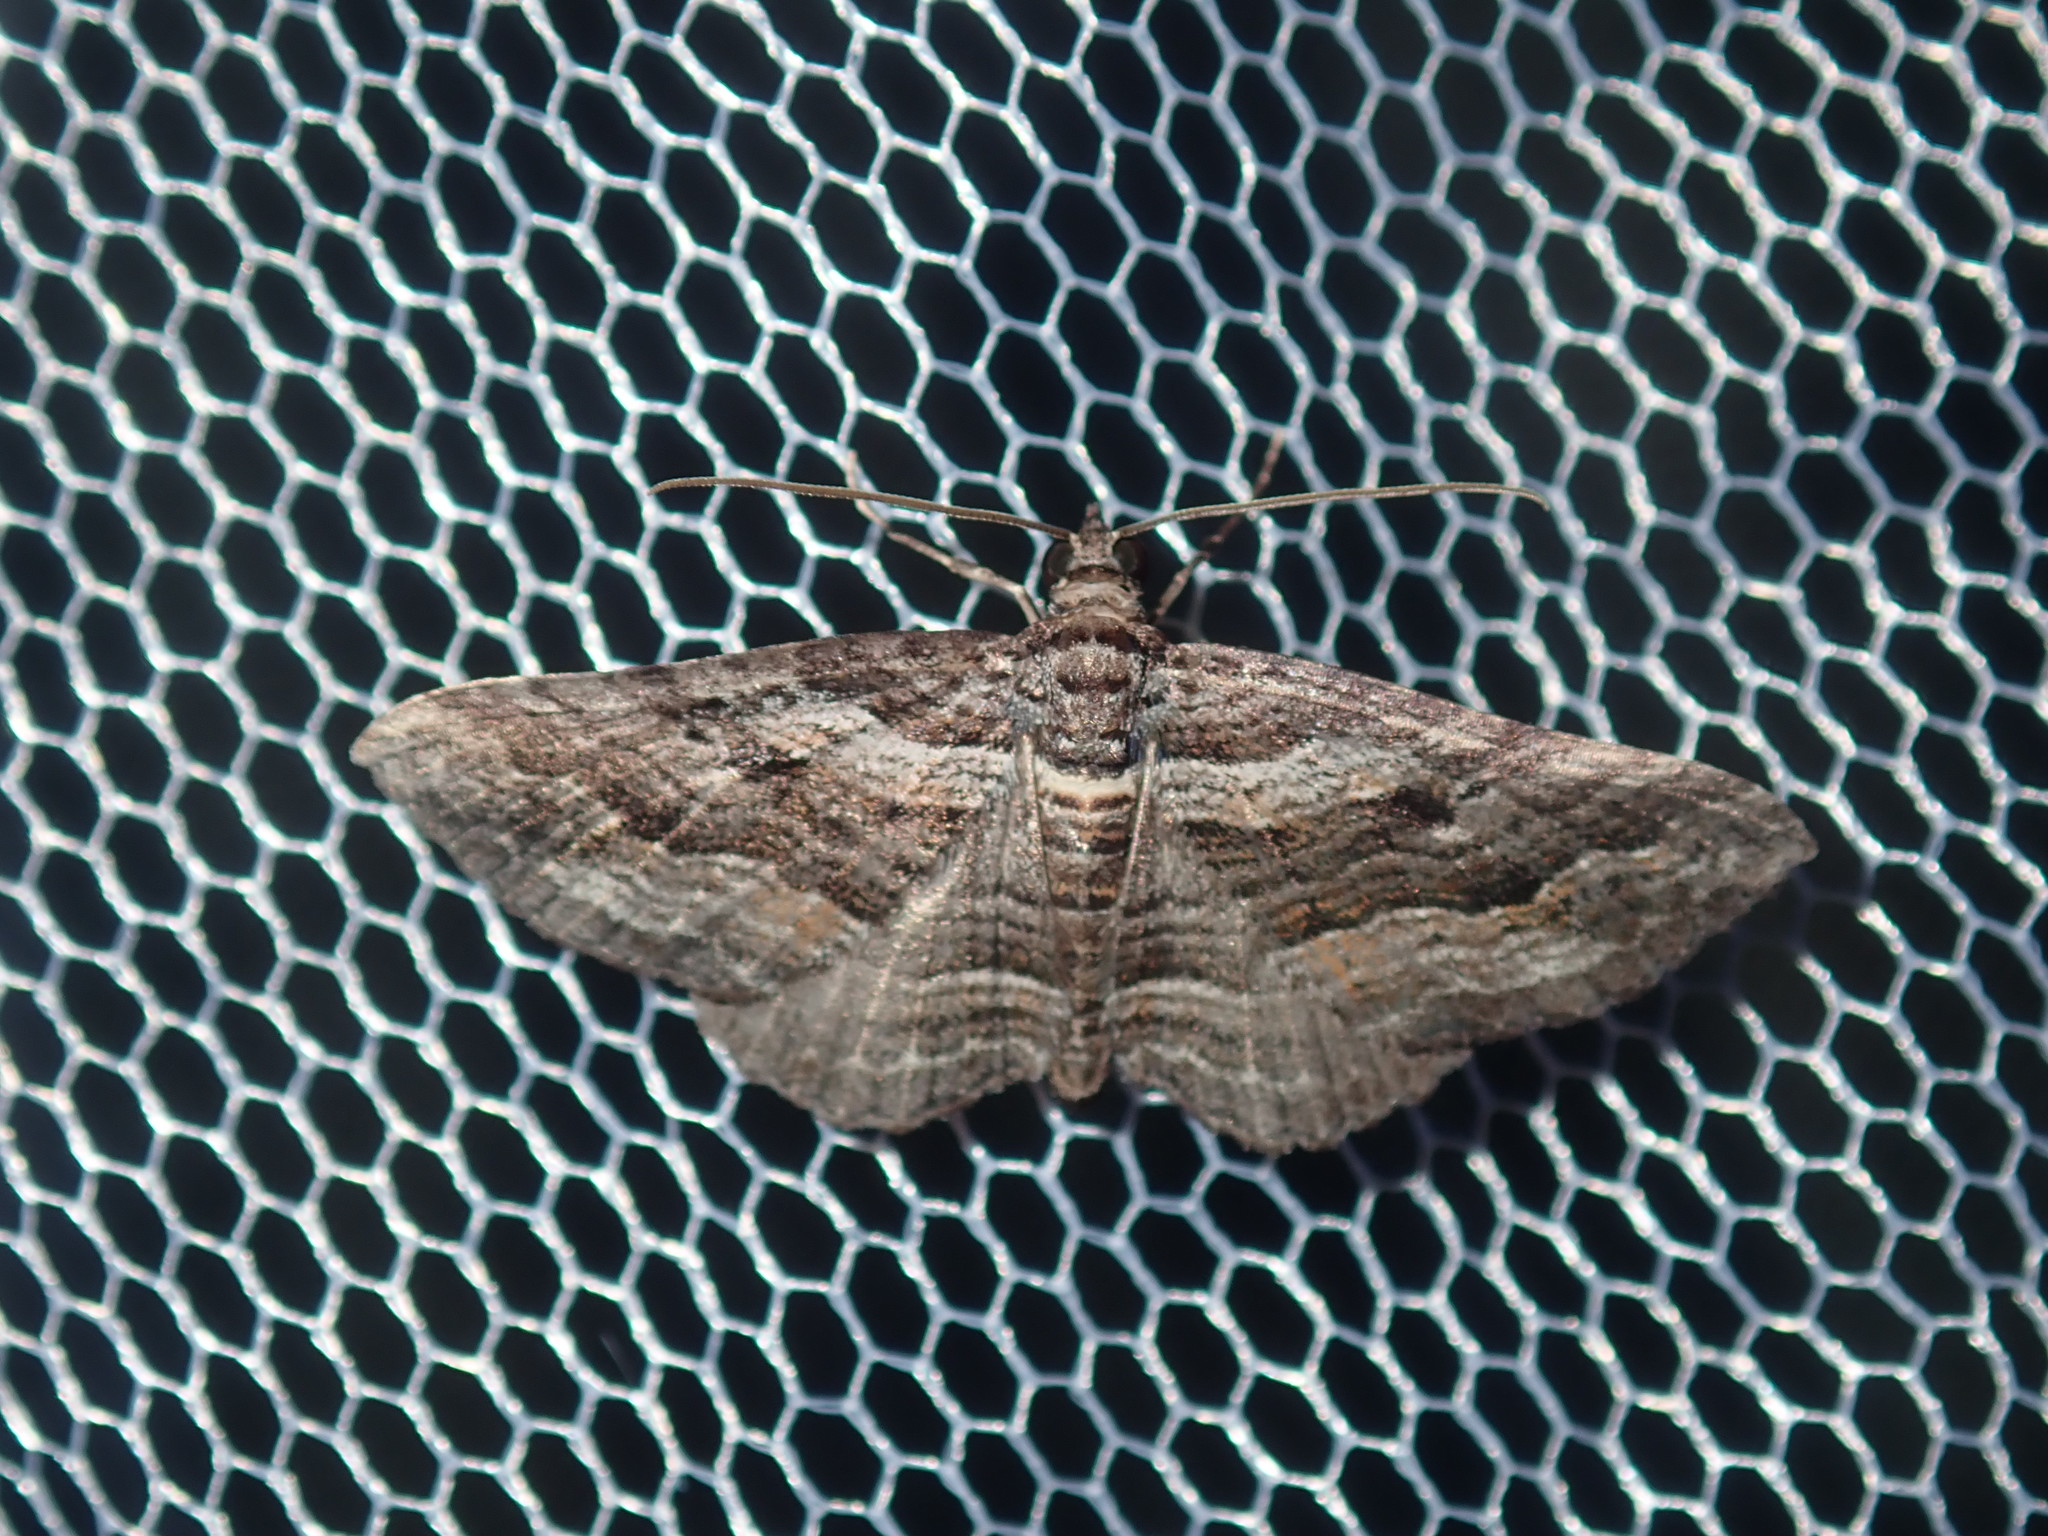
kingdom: Animalia
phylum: Arthropoda
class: Insecta
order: Lepidoptera
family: Geometridae
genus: Chrysolarentia
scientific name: Chrysolarentia severata
